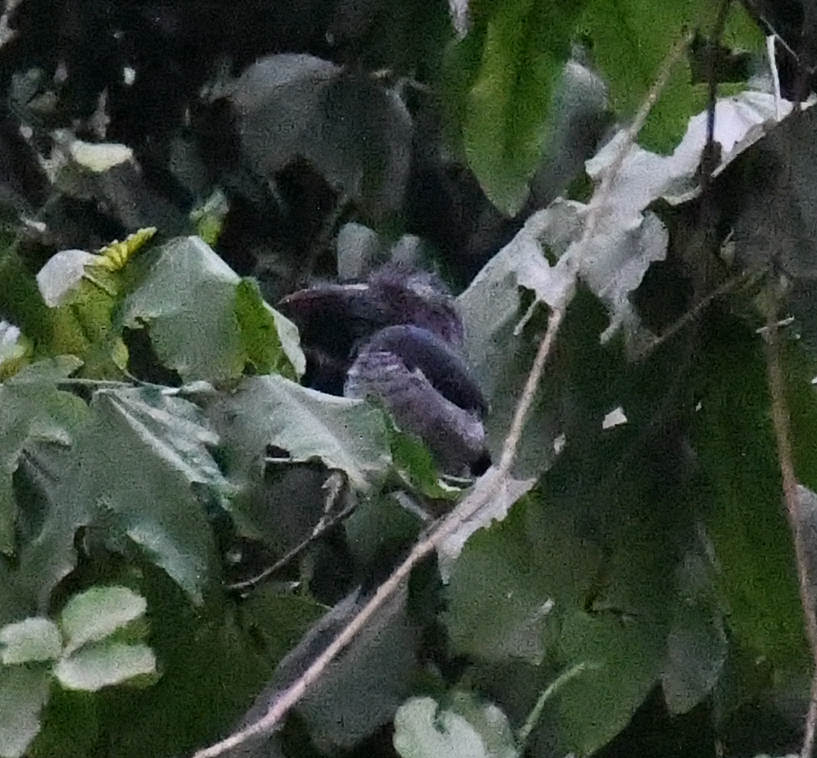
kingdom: Animalia
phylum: Chordata
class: Aves
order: Bucerotiformes
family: Bucerotidae
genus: Horizocerus
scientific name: Horizocerus hartlaubi
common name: Black dwarf hornbill
